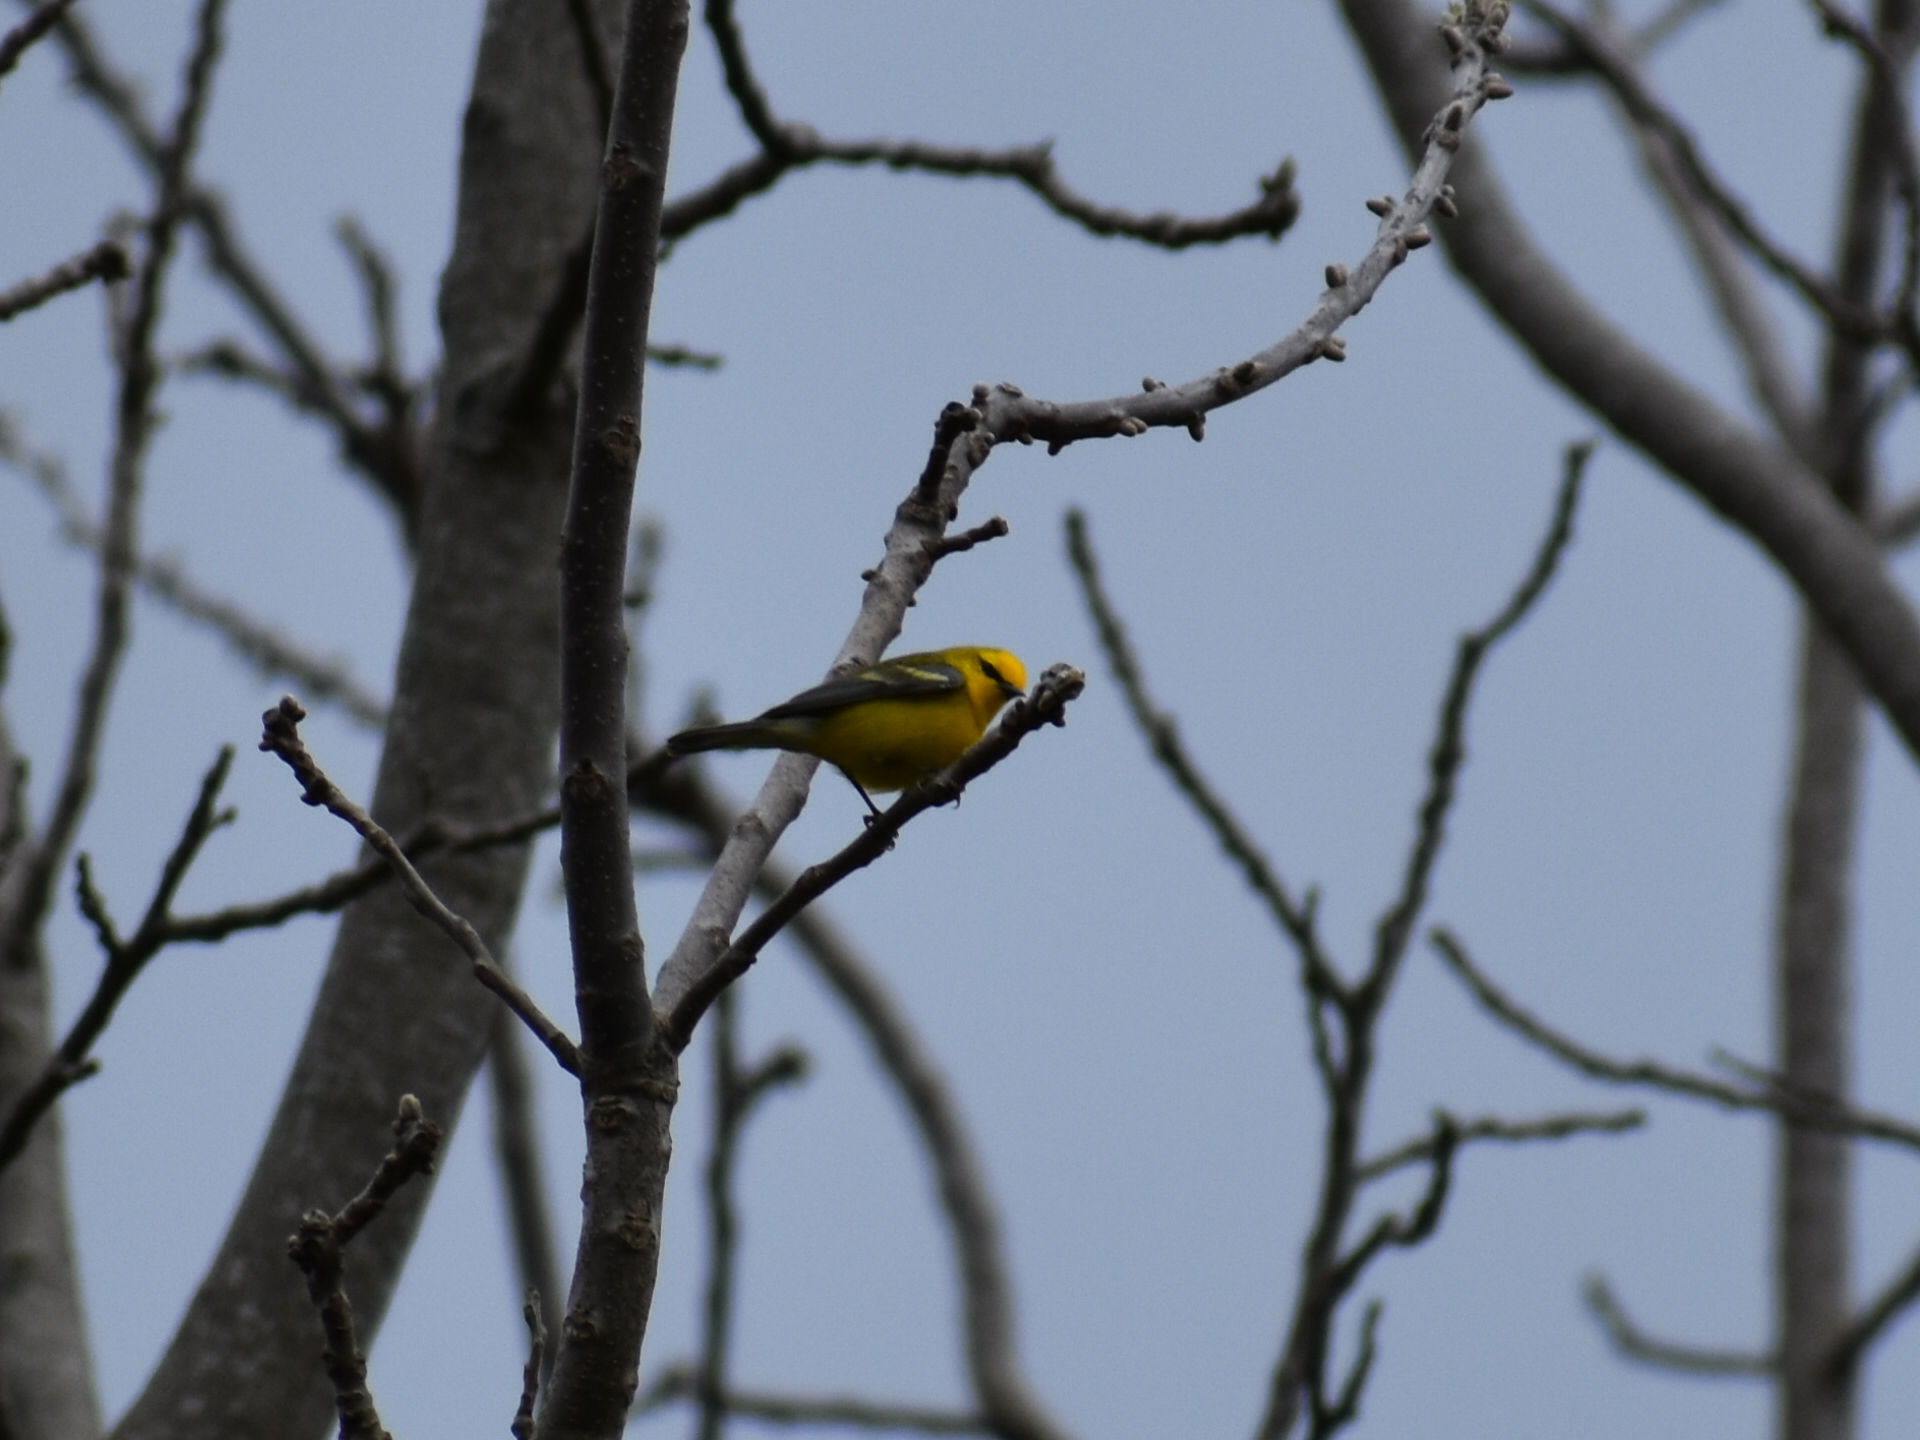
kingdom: Animalia
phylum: Chordata
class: Aves
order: Passeriformes
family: Parulidae
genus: Vermivora
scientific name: Vermivora cyanoptera
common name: Blue-winged warbler
